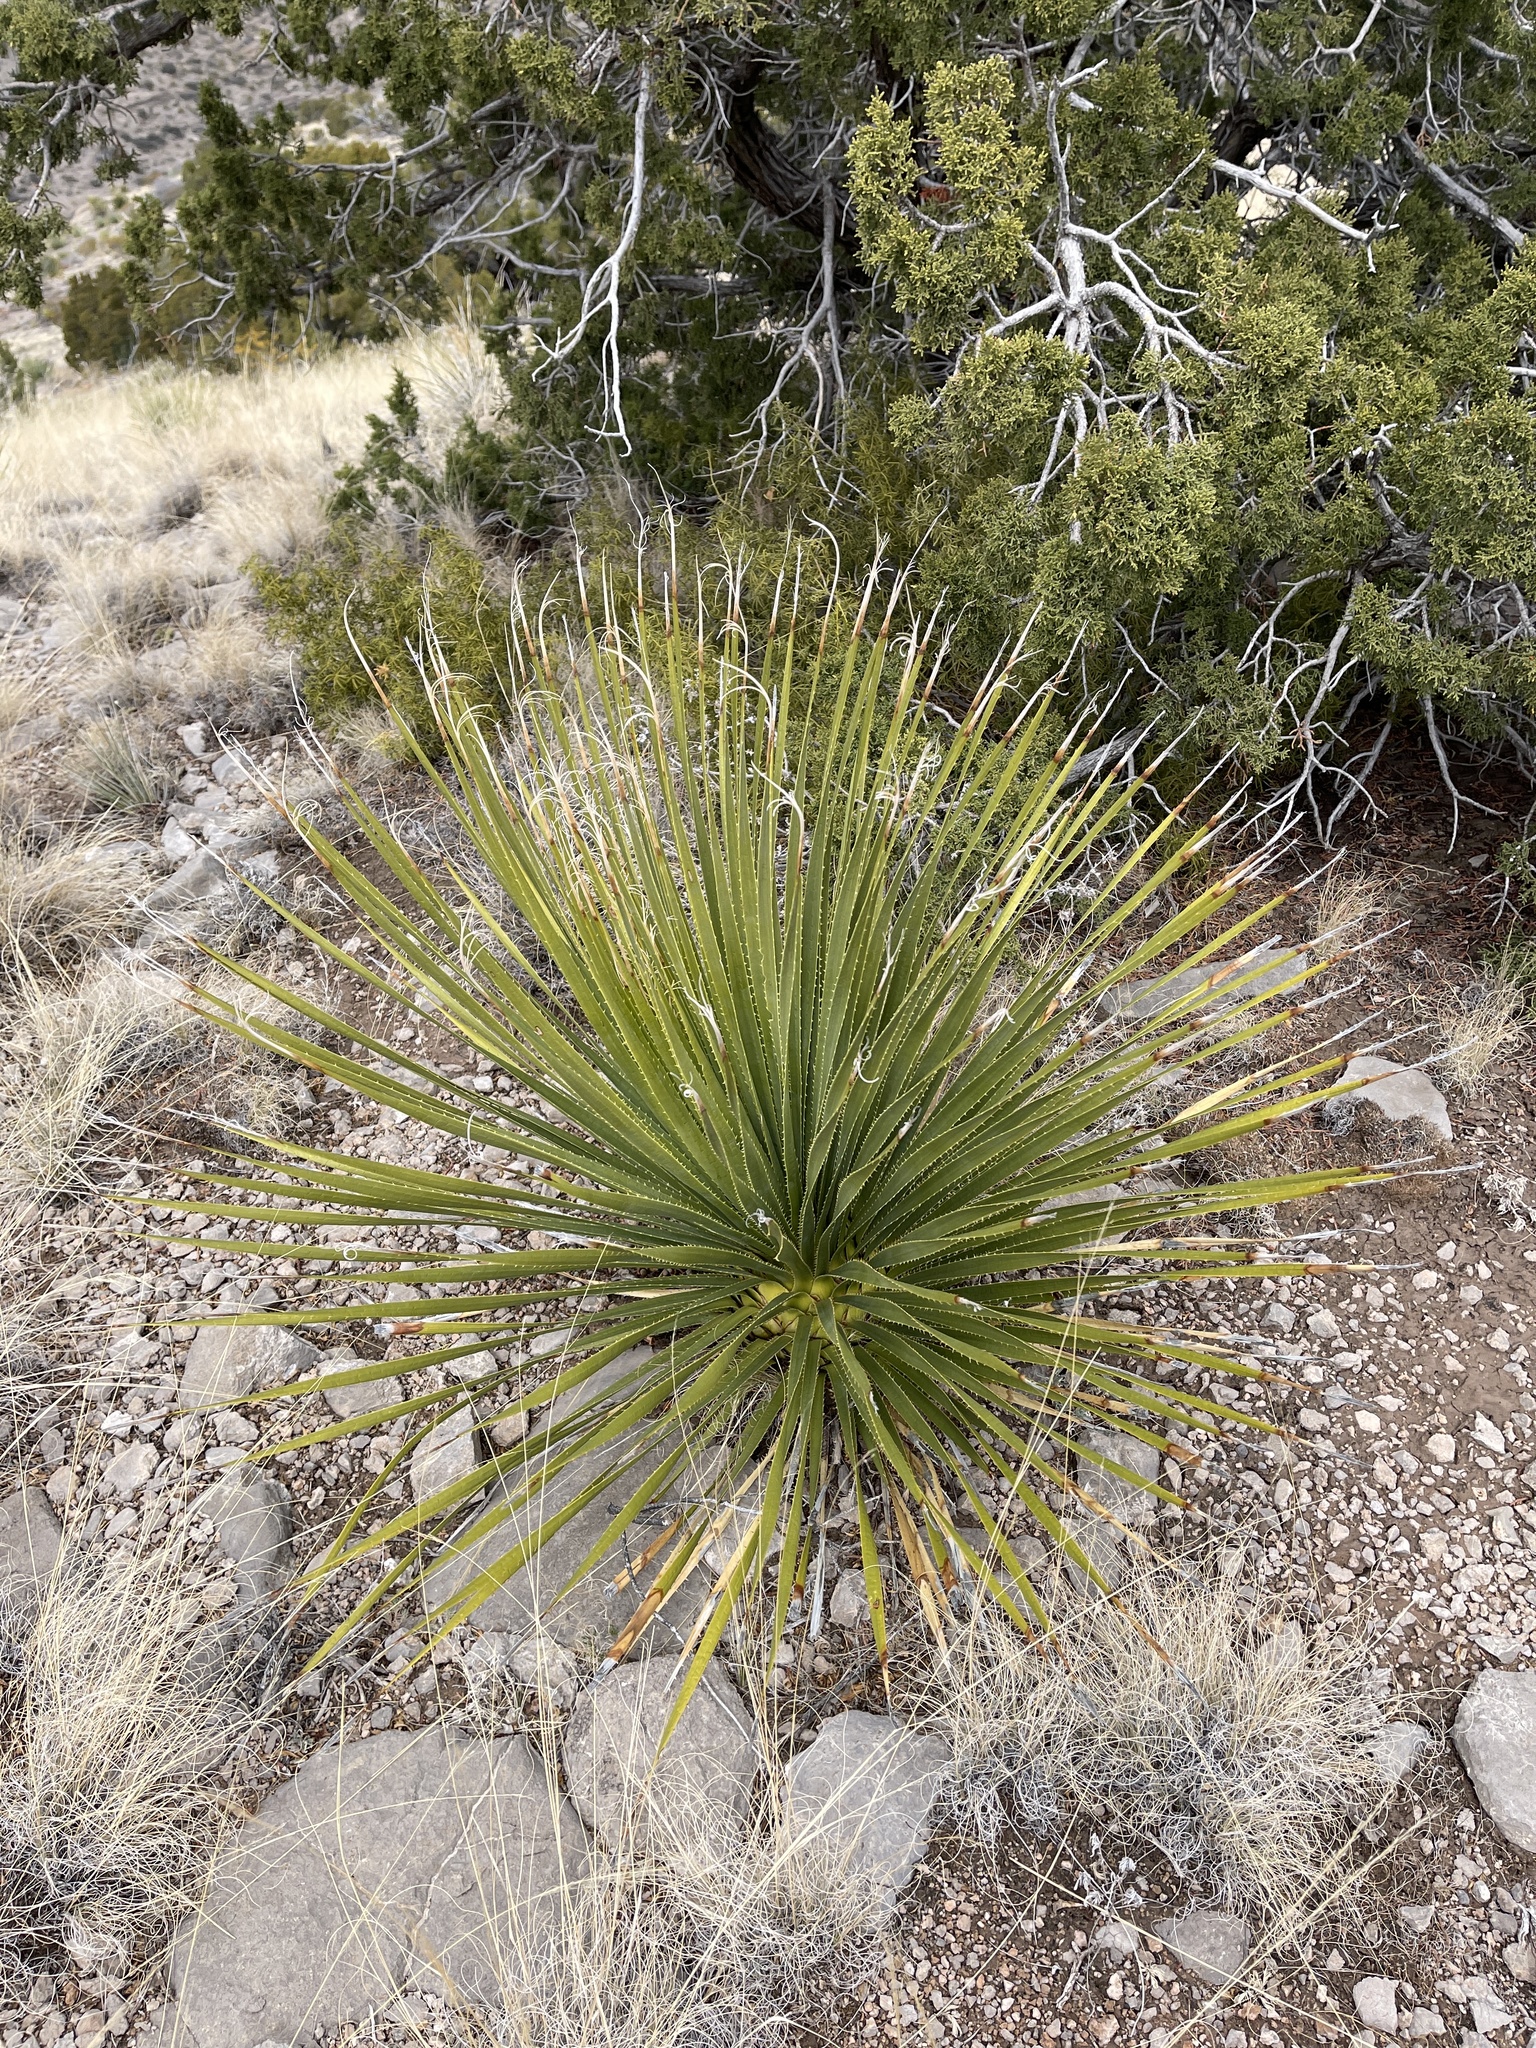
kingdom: Plantae
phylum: Tracheophyta
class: Liliopsida
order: Asparagales
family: Asparagaceae
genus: Dasylirion
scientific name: Dasylirion wheeleri
